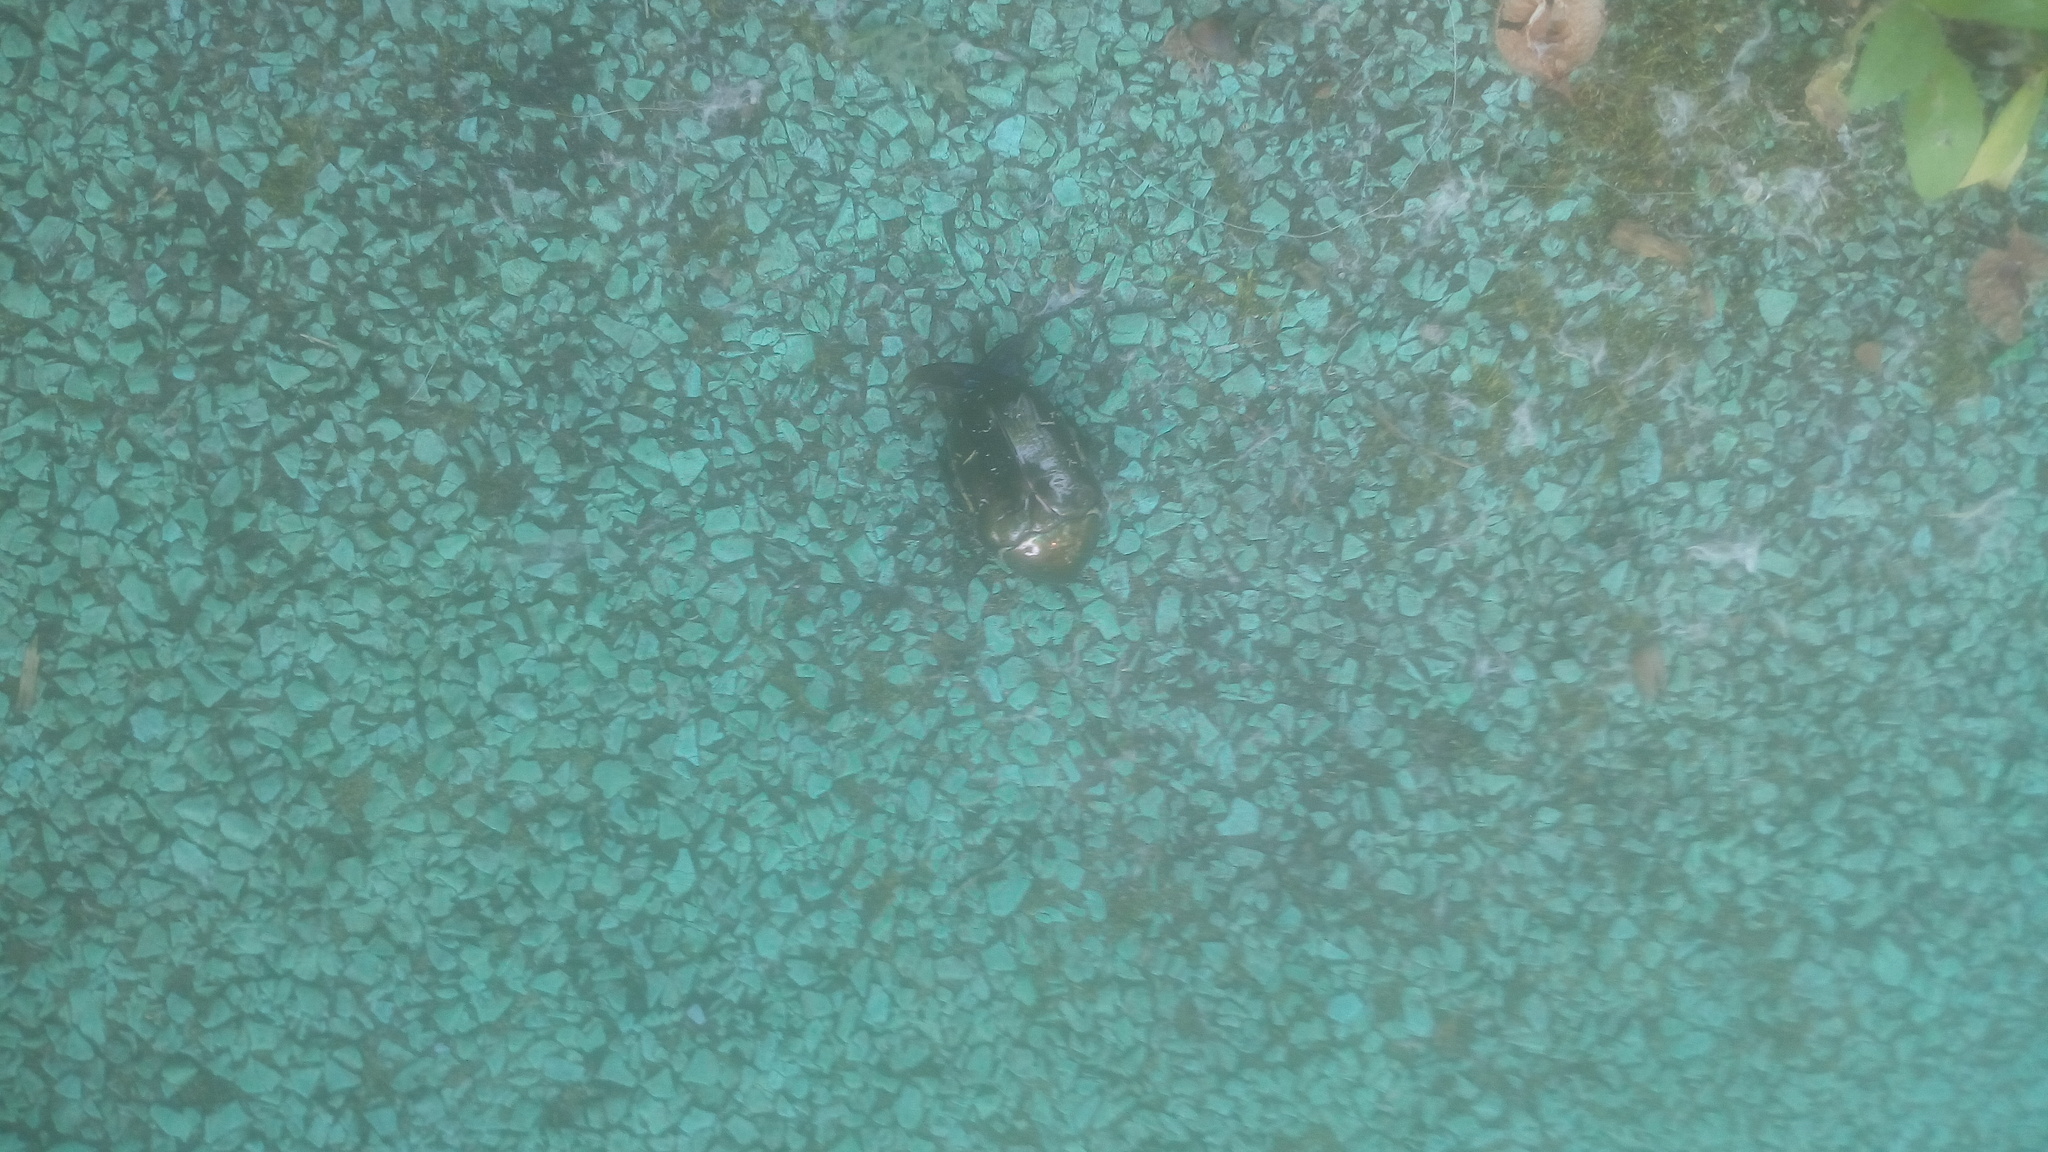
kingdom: Animalia
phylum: Arthropoda
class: Insecta
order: Coleoptera
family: Scarabaeidae
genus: Protaetia
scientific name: Protaetia marmorata
